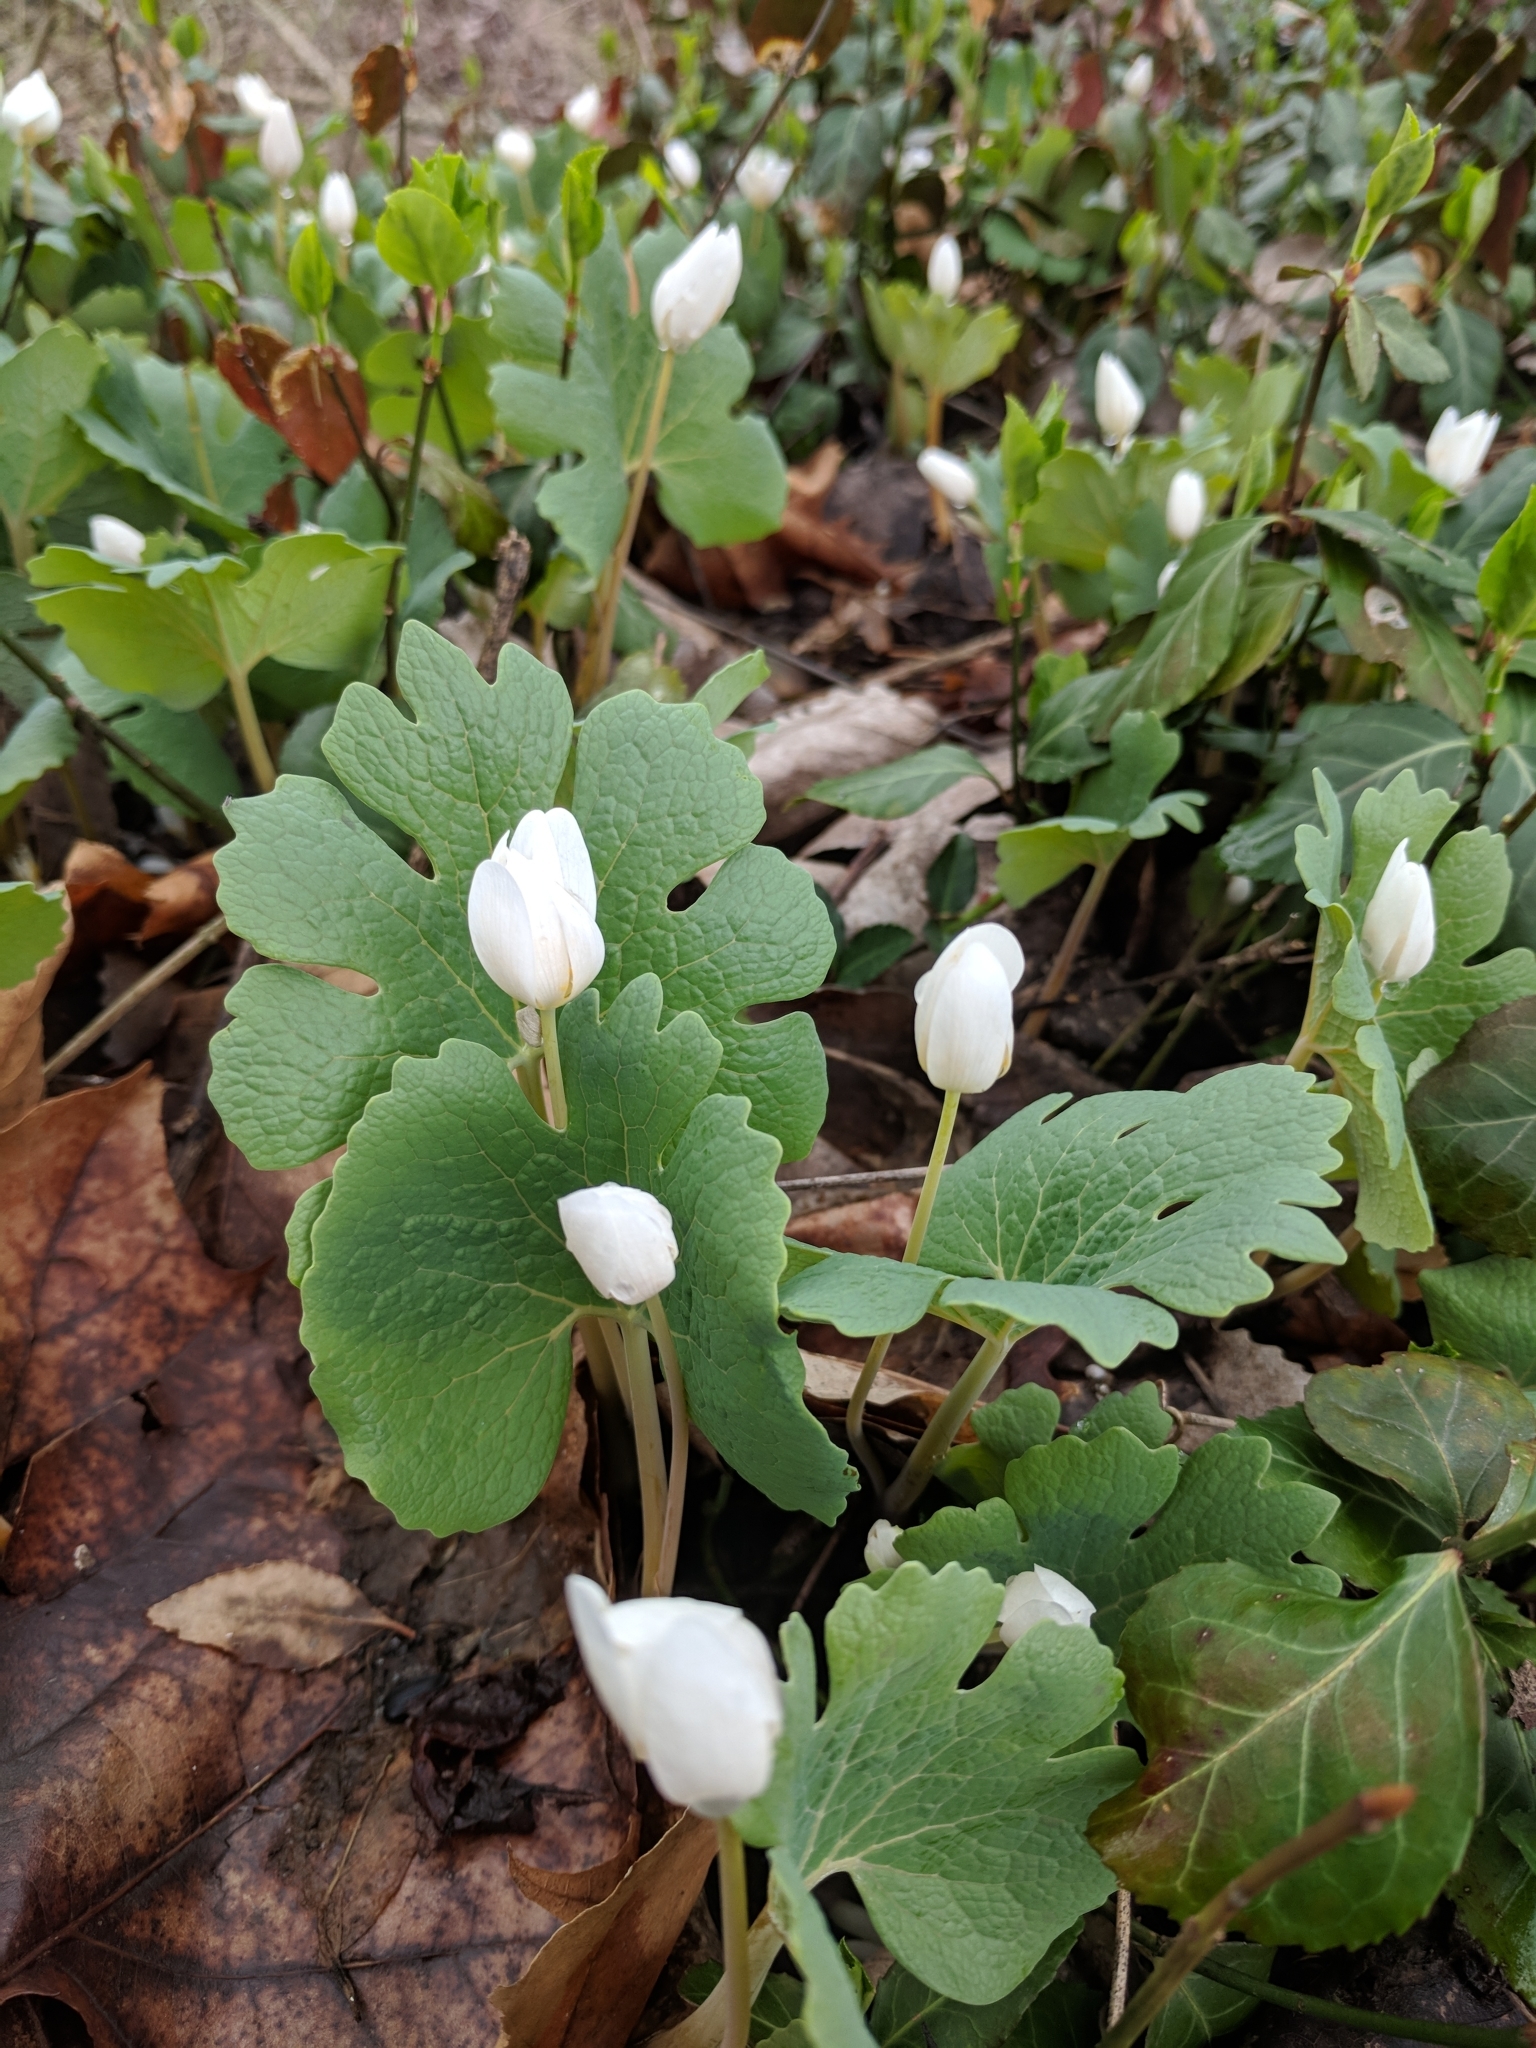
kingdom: Plantae
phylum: Tracheophyta
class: Magnoliopsida
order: Ranunculales
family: Papaveraceae
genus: Sanguinaria
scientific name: Sanguinaria canadensis
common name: Bloodroot
